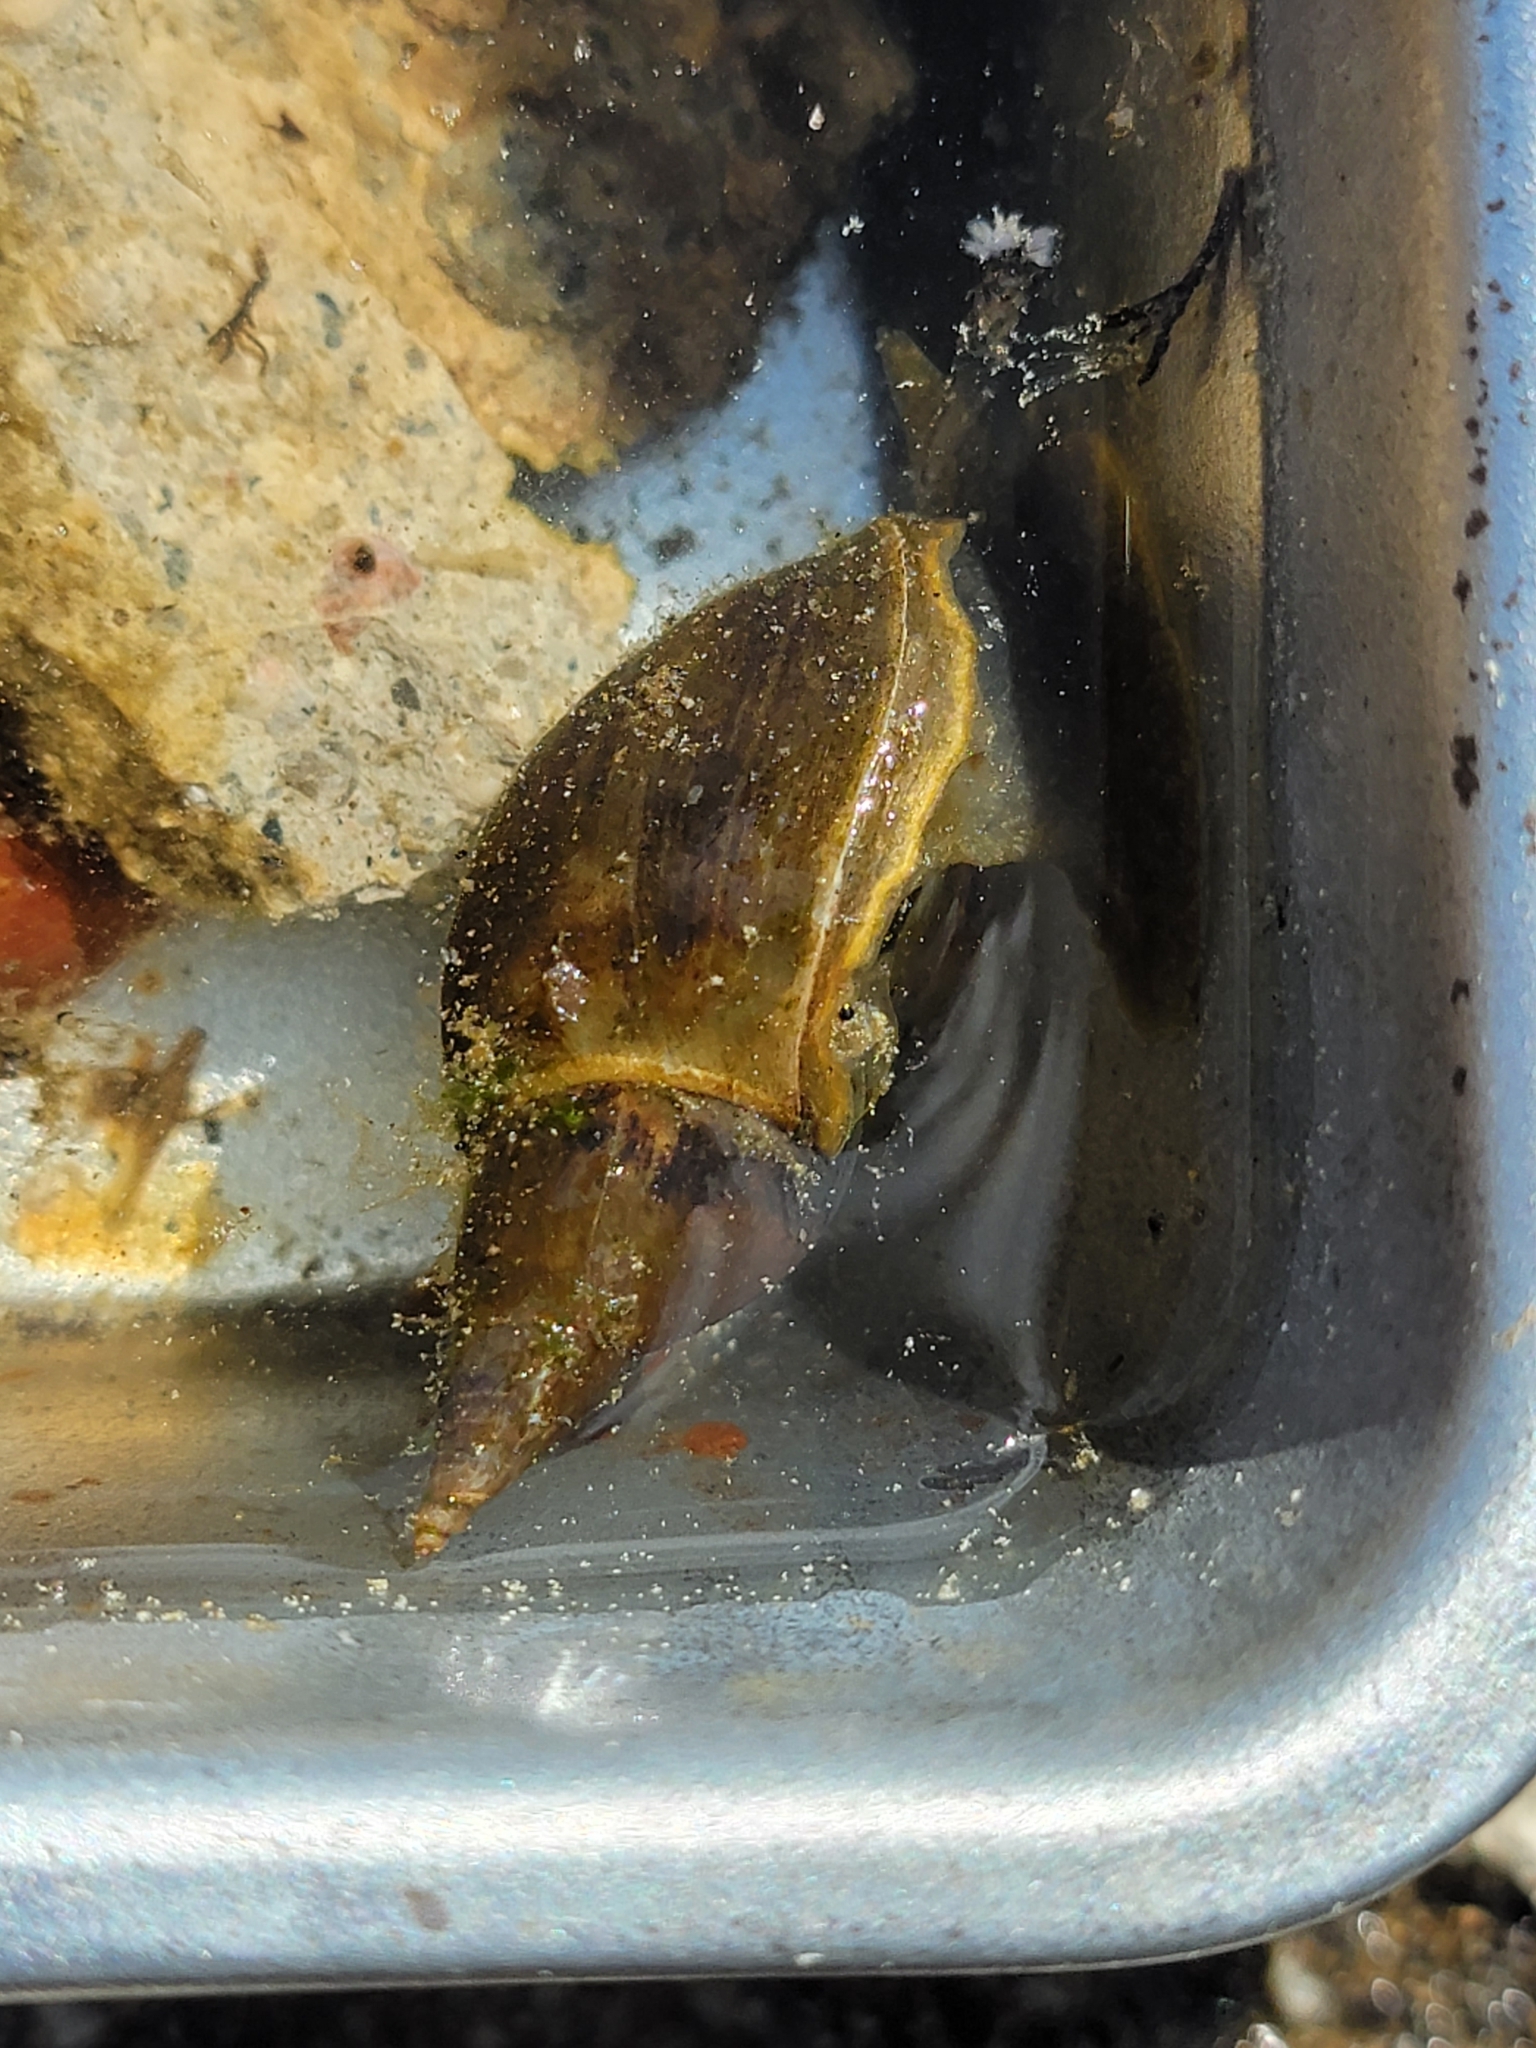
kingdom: Animalia
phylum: Mollusca
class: Gastropoda
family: Lymnaeidae
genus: Lymnaea
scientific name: Lymnaea stagnalis
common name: Great pond snail
